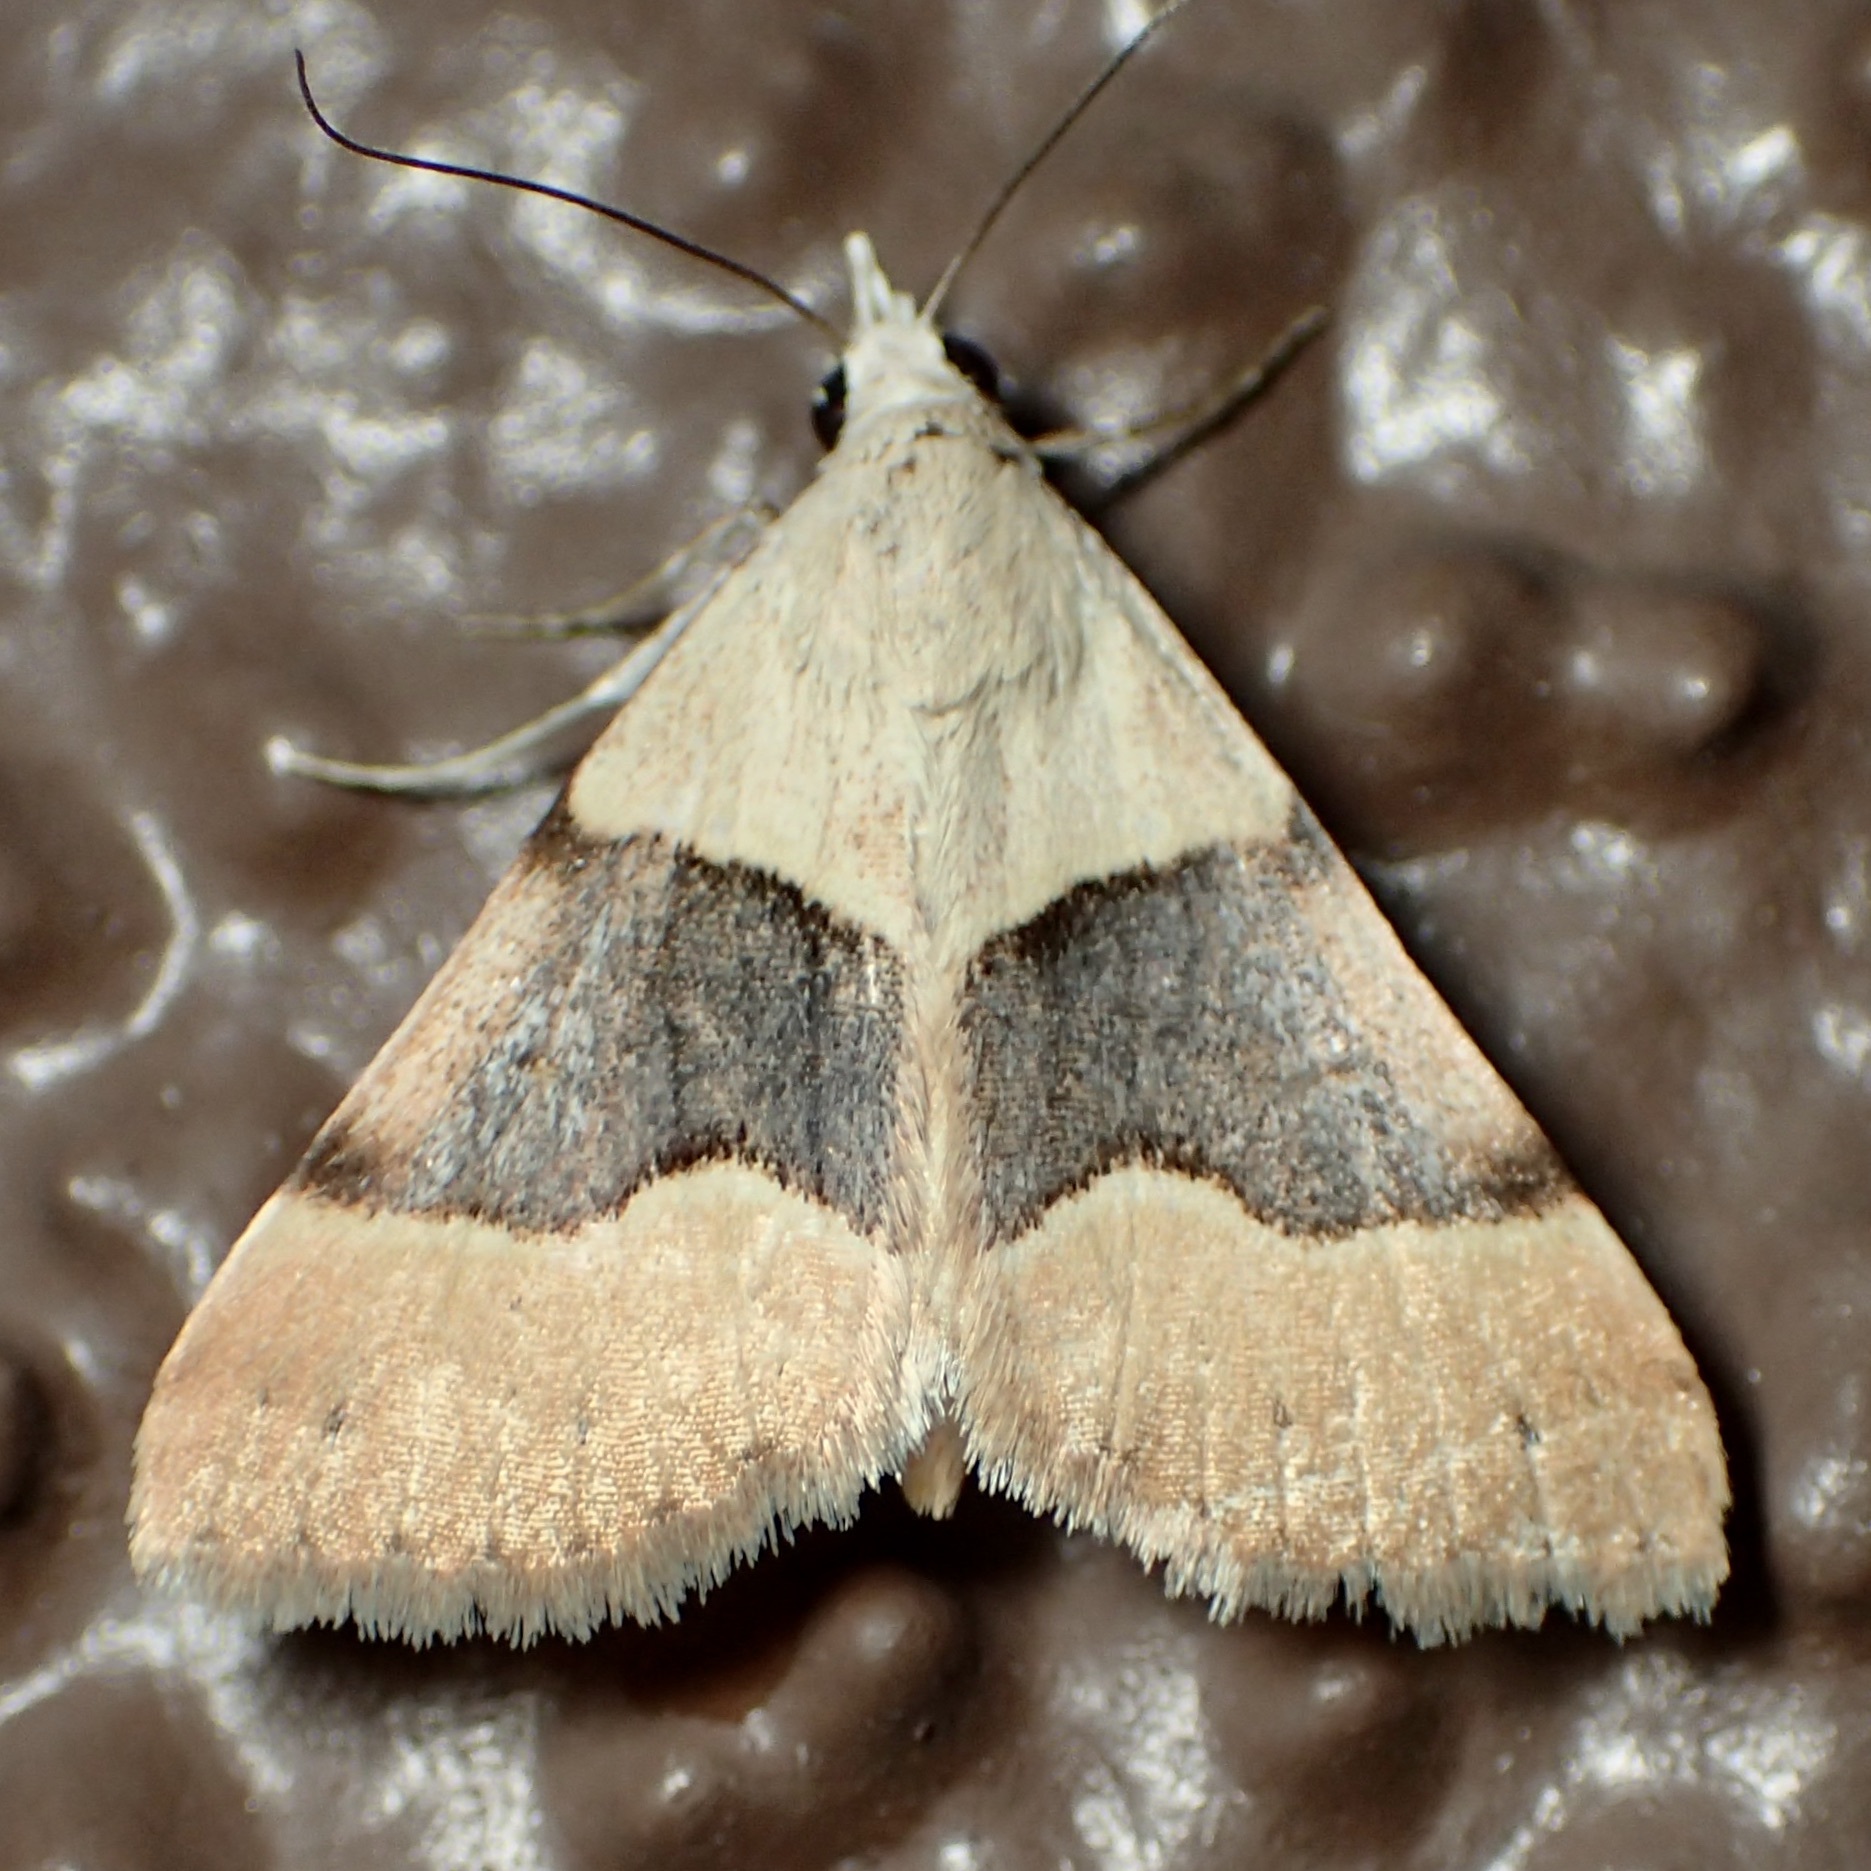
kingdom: Animalia
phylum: Arthropoda
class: Insecta
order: Lepidoptera
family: Erebidae
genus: Hemeroplanis
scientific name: Hemeroplanis incusalis
